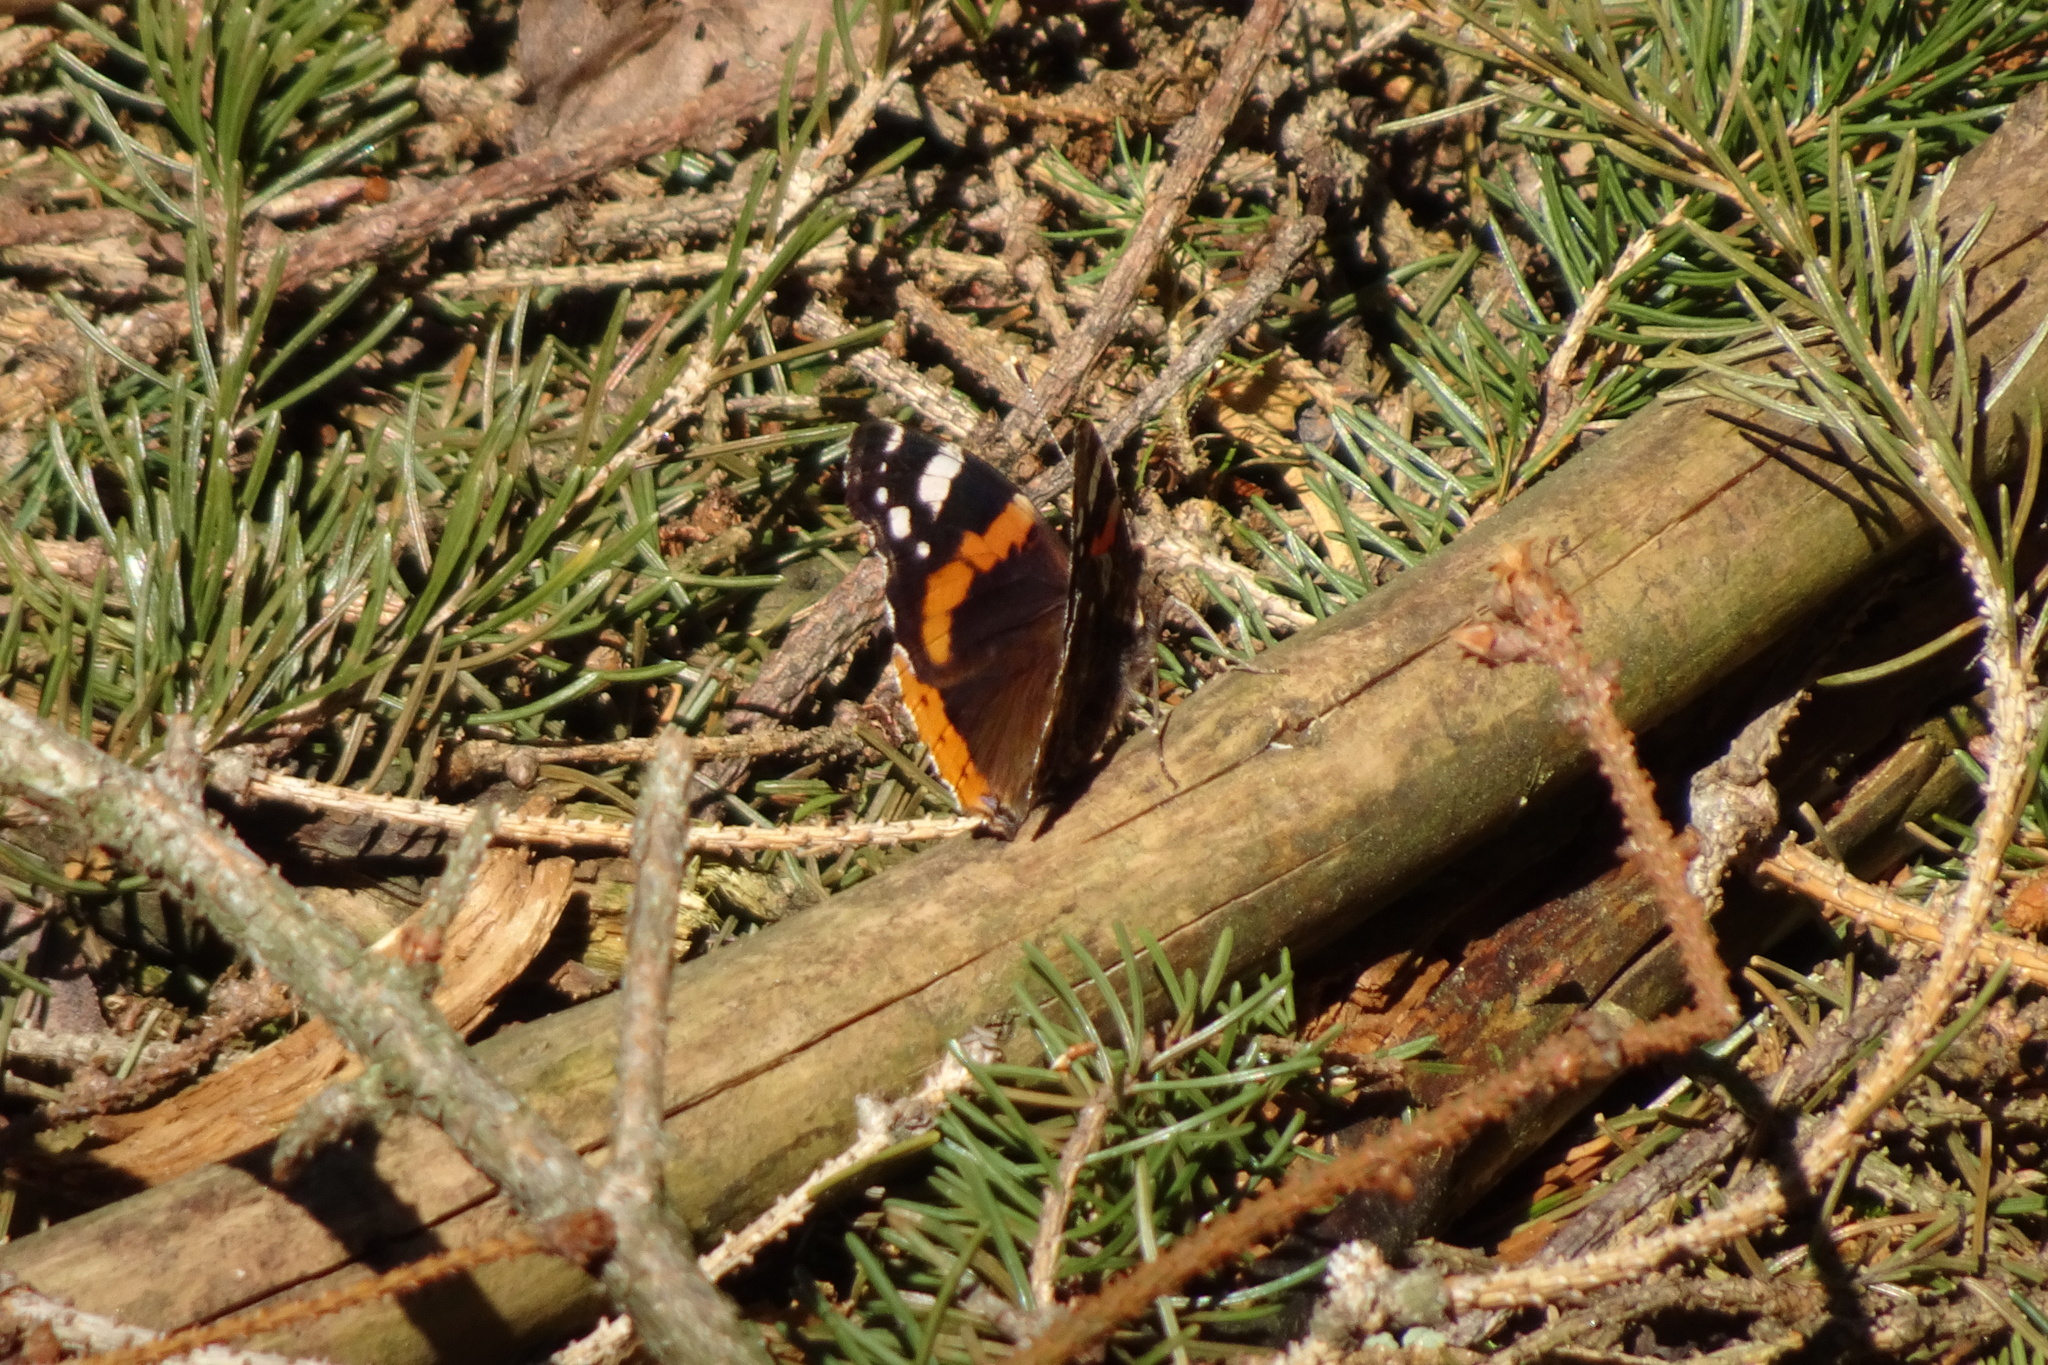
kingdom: Animalia
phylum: Arthropoda
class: Insecta
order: Lepidoptera
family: Nymphalidae
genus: Vanessa
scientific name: Vanessa atalanta
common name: Red admiral
